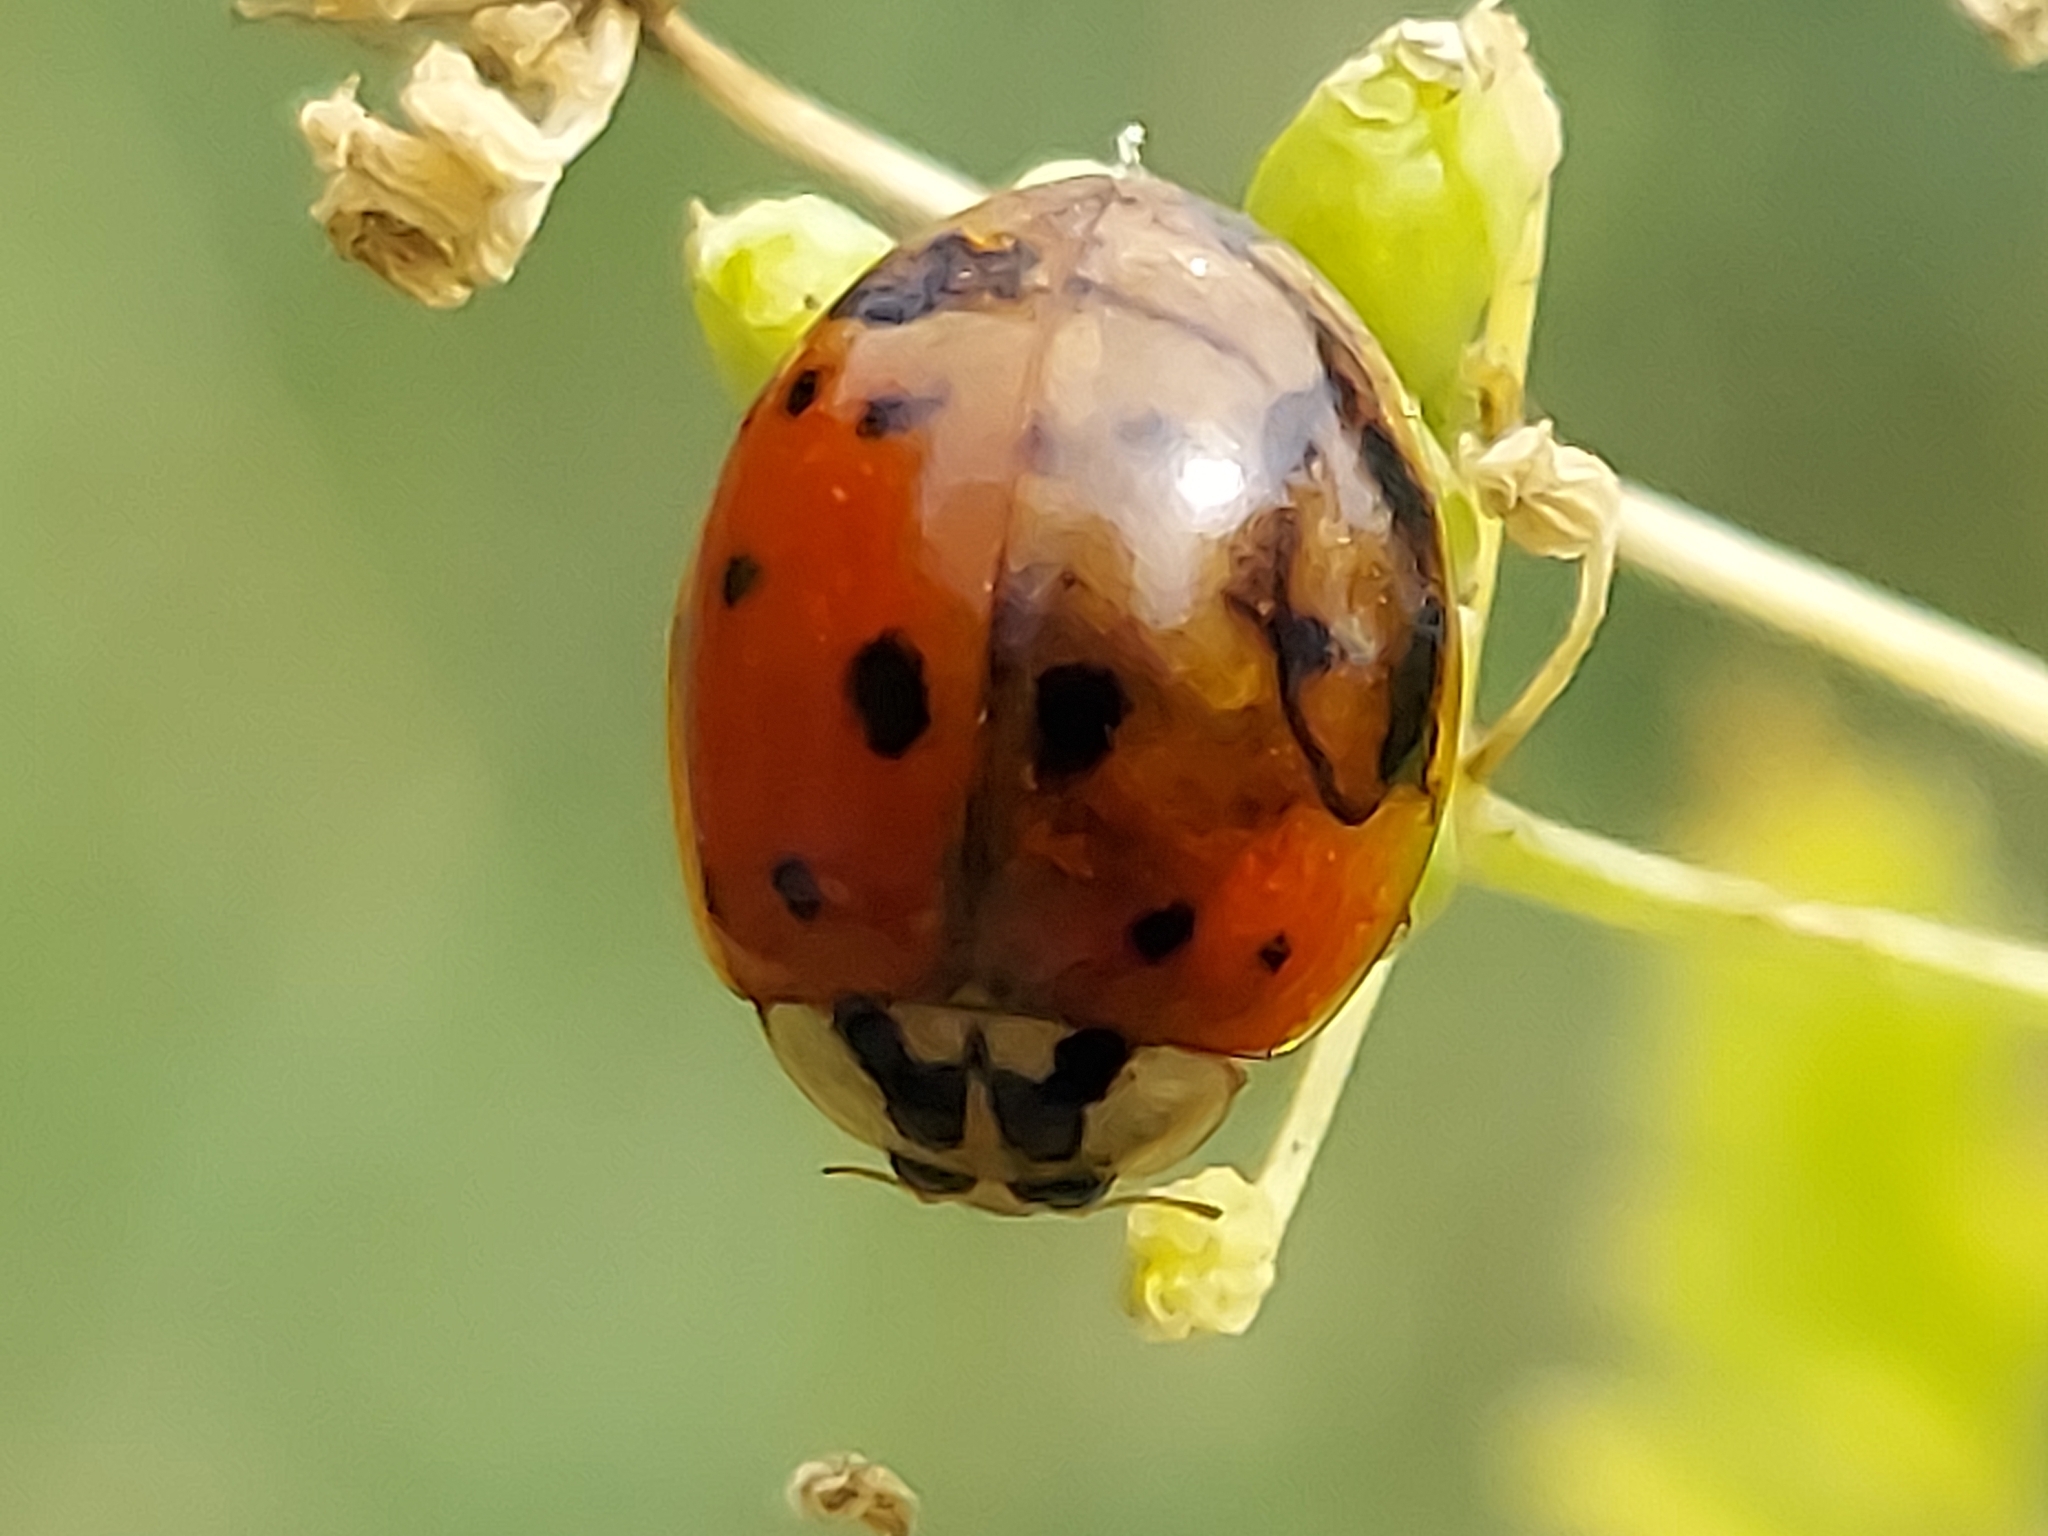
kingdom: Animalia
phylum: Arthropoda
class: Insecta
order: Coleoptera
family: Coccinellidae
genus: Harmonia
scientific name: Harmonia axyridis
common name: Harlequin ladybird
